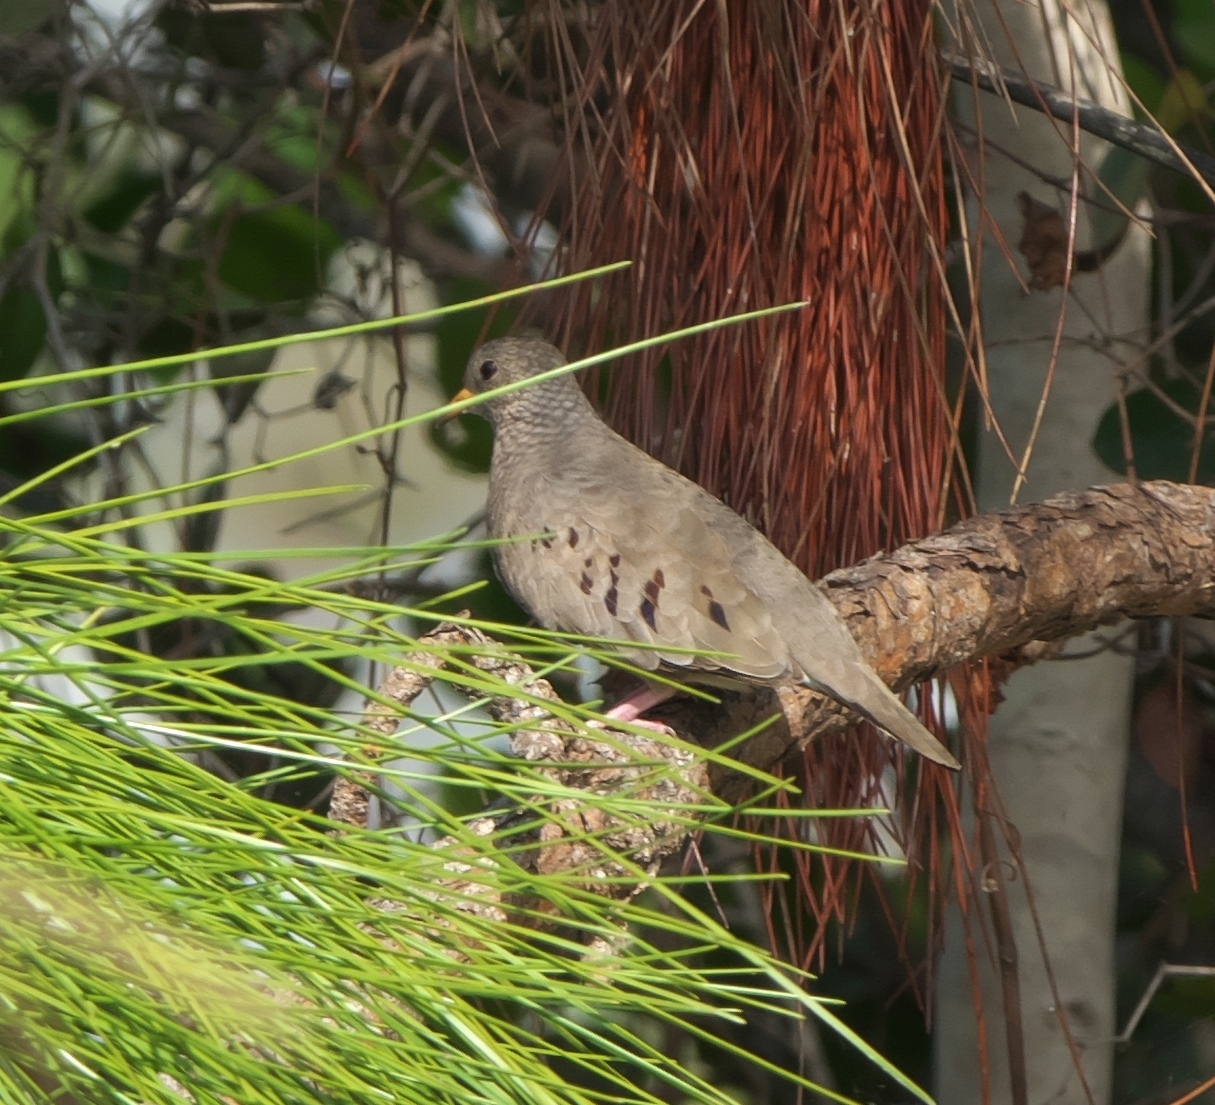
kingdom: Animalia
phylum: Chordata
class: Aves
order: Columbiformes
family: Columbidae
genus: Columbina
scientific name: Columbina passerina
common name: Common ground-dove
